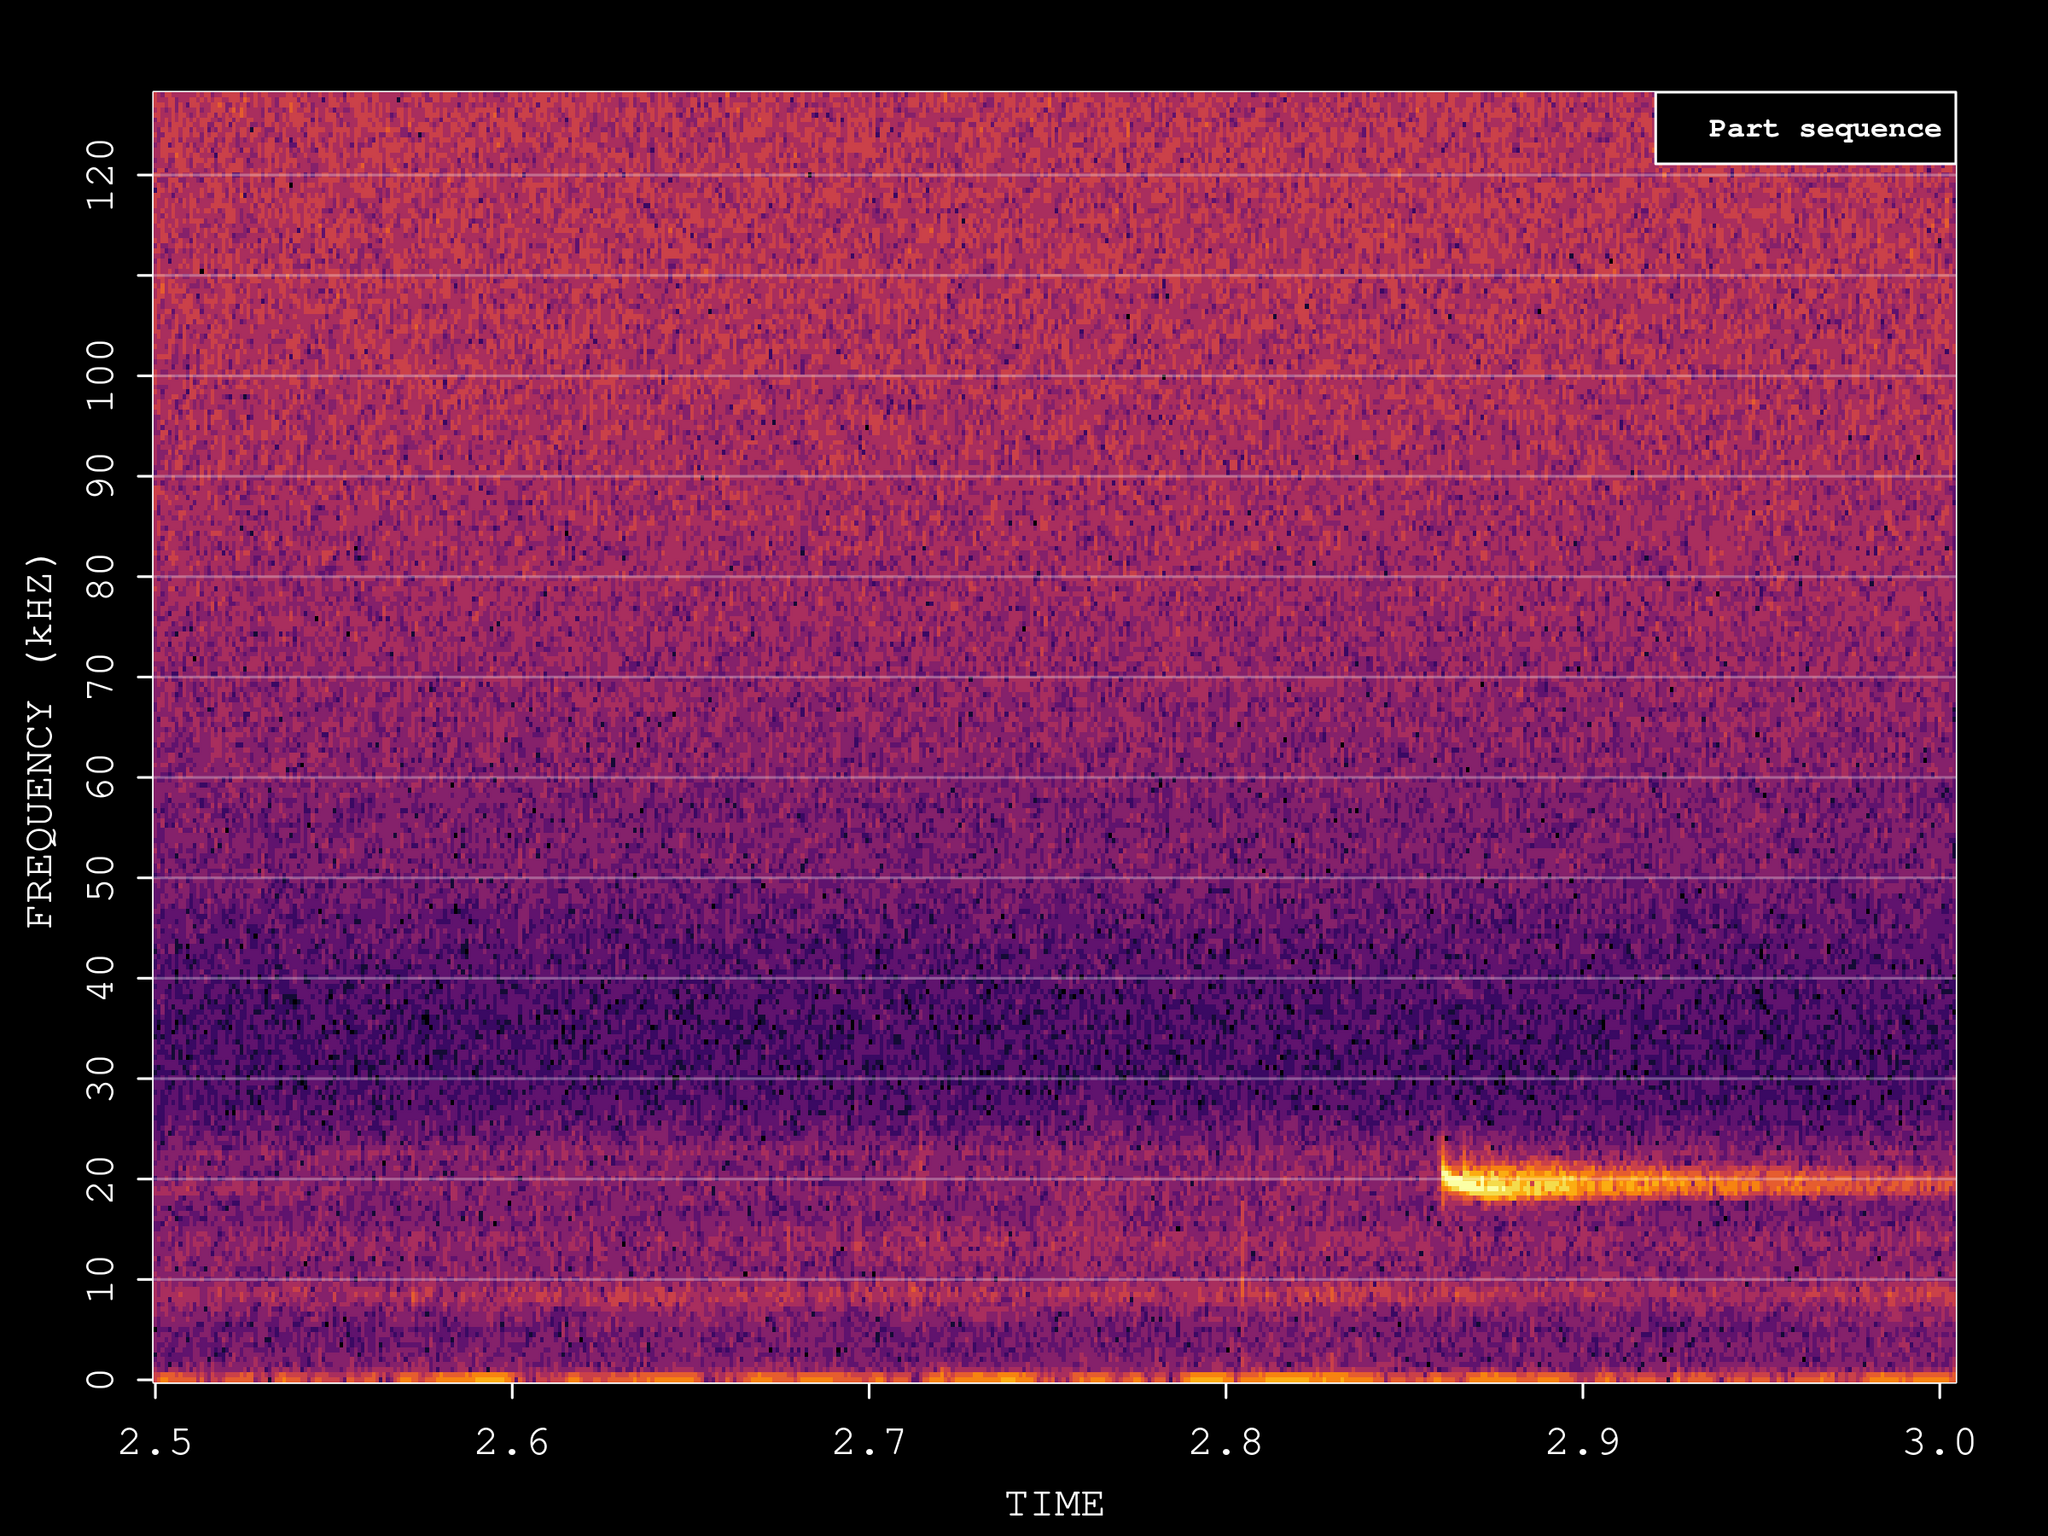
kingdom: Animalia
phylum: Chordata
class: Mammalia
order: Chiroptera
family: Vespertilionidae
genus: Nyctalus
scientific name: Nyctalus noctula
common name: Noctule
